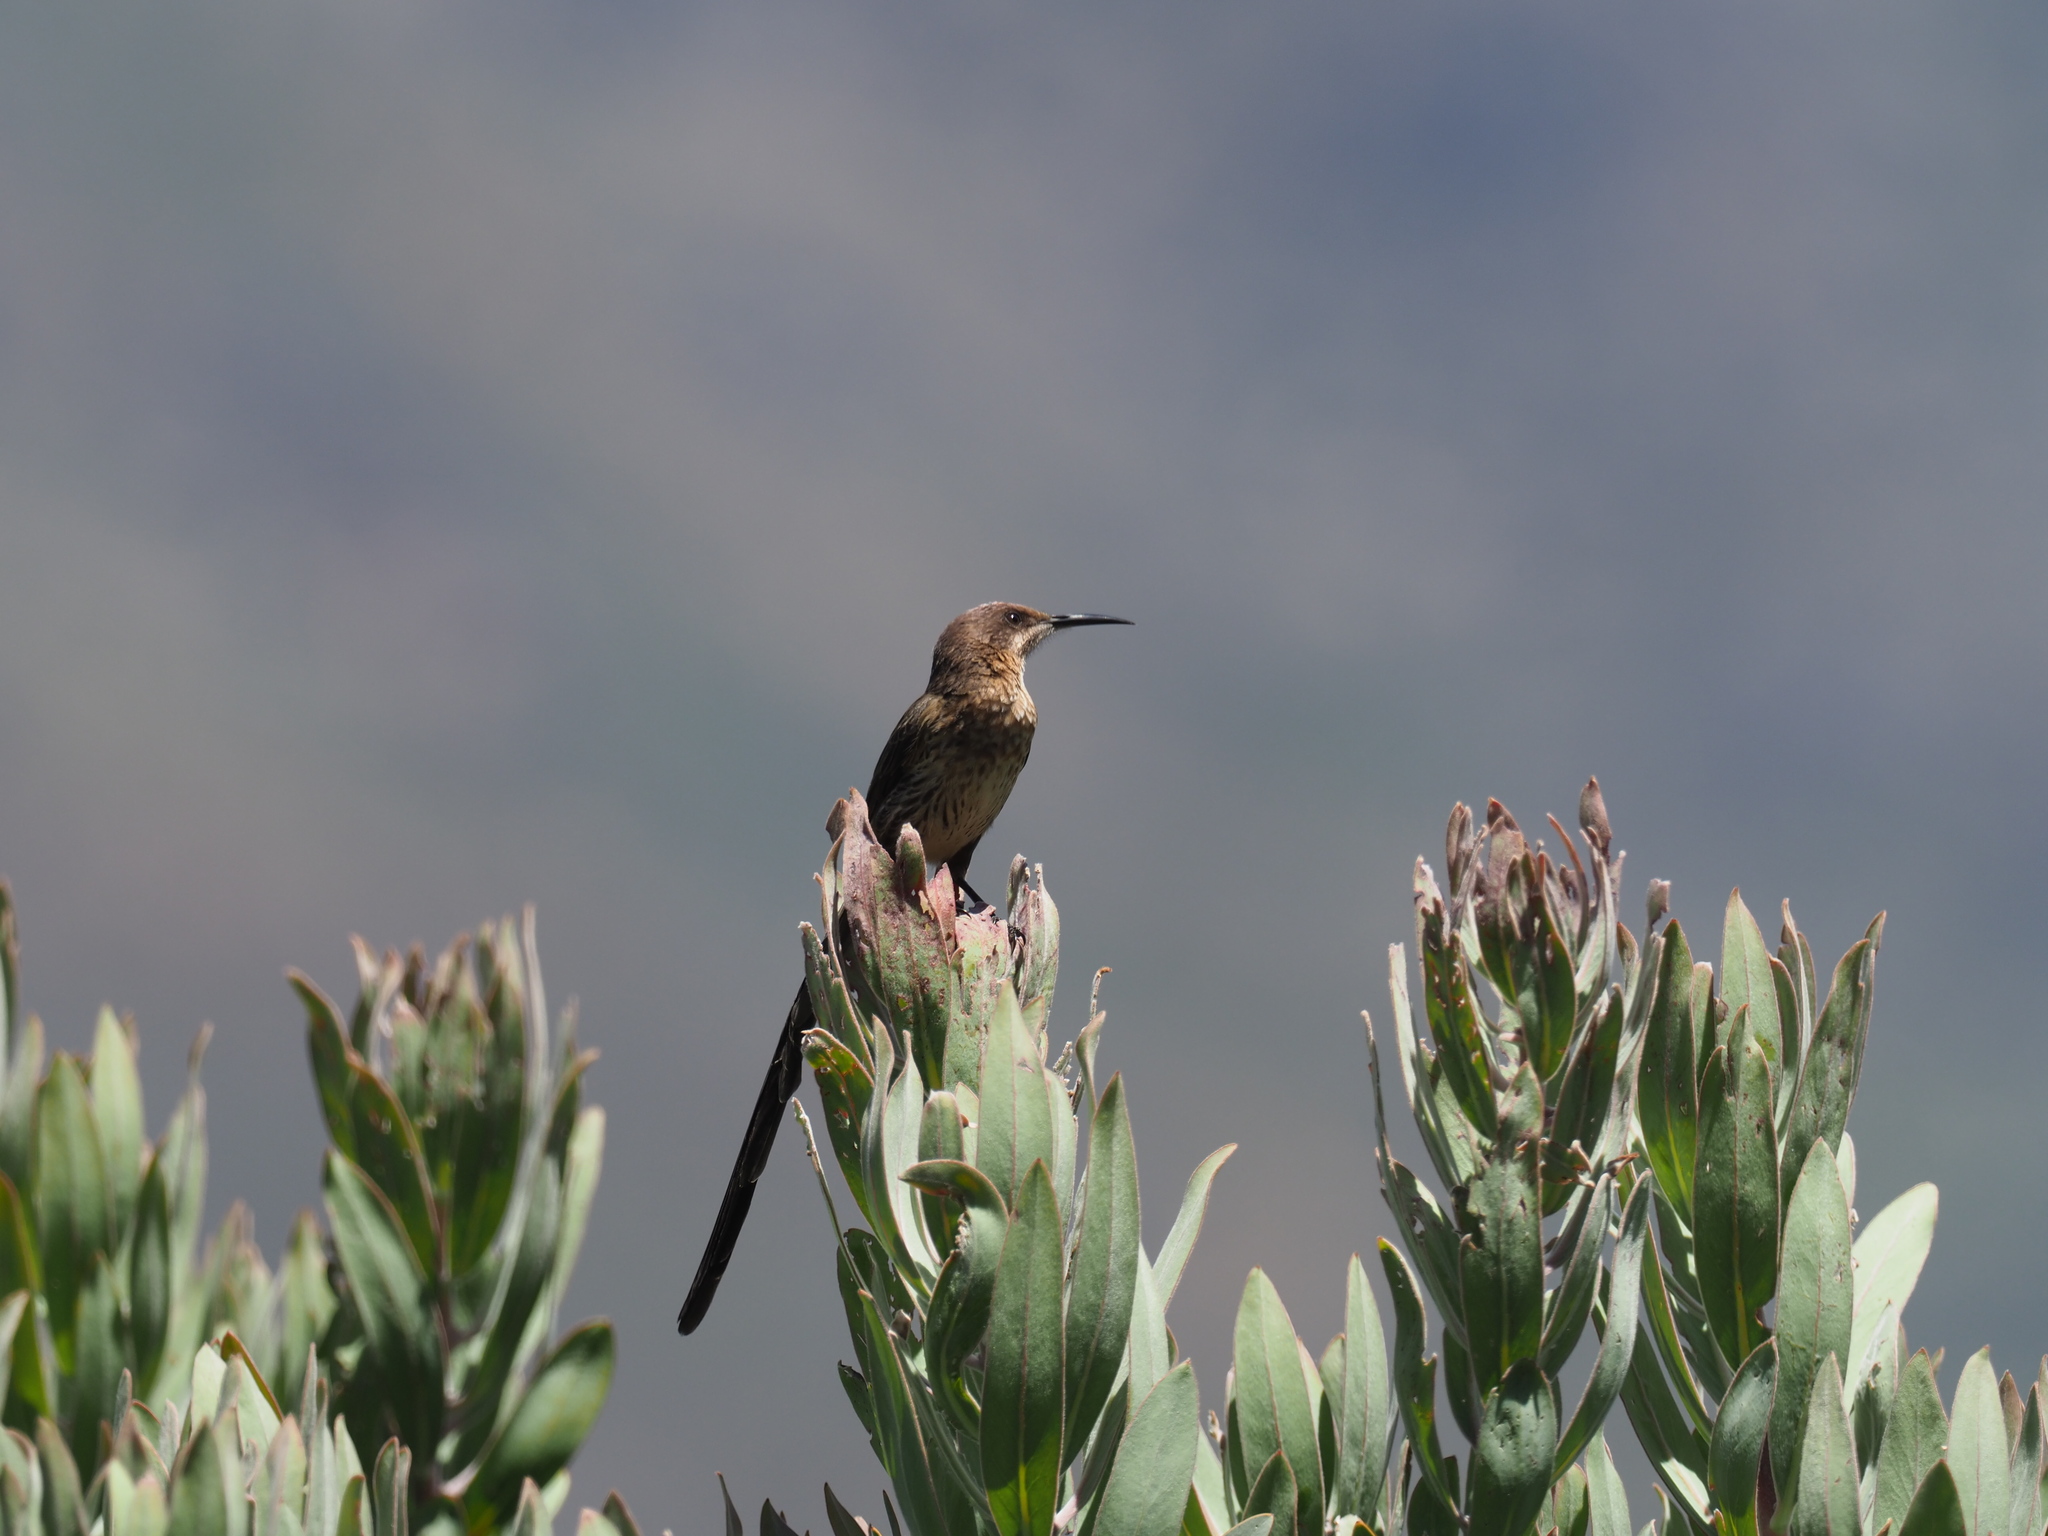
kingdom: Animalia
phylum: Chordata
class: Aves
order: Passeriformes
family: Promeropidae
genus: Promerops
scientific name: Promerops cafer
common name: Cape sugarbird
